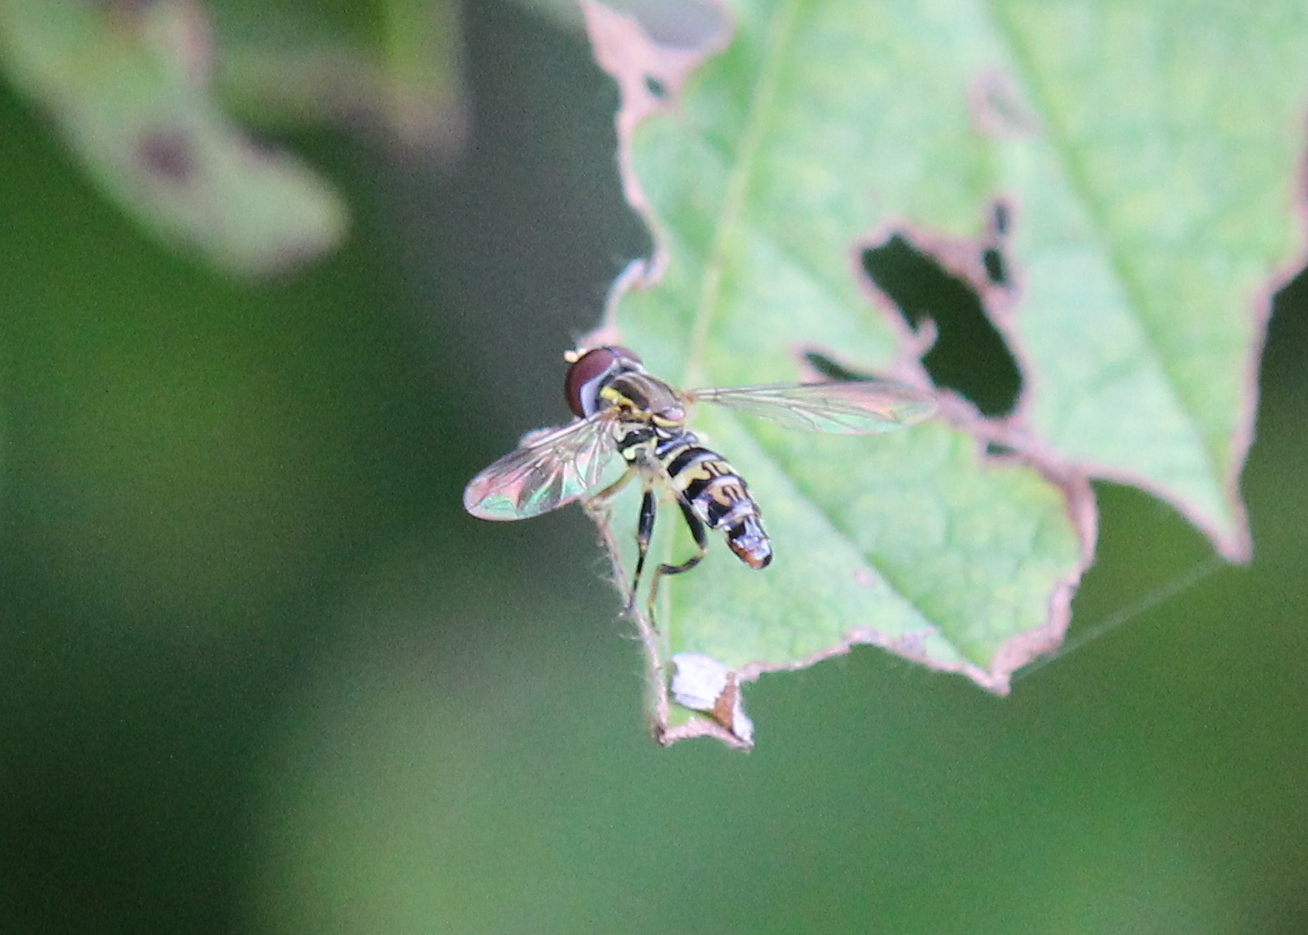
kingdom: Animalia
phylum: Arthropoda
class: Insecta
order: Diptera
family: Syrphidae
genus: Toxomerus
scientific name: Toxomerus geminatus
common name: Eastern calligrapher
